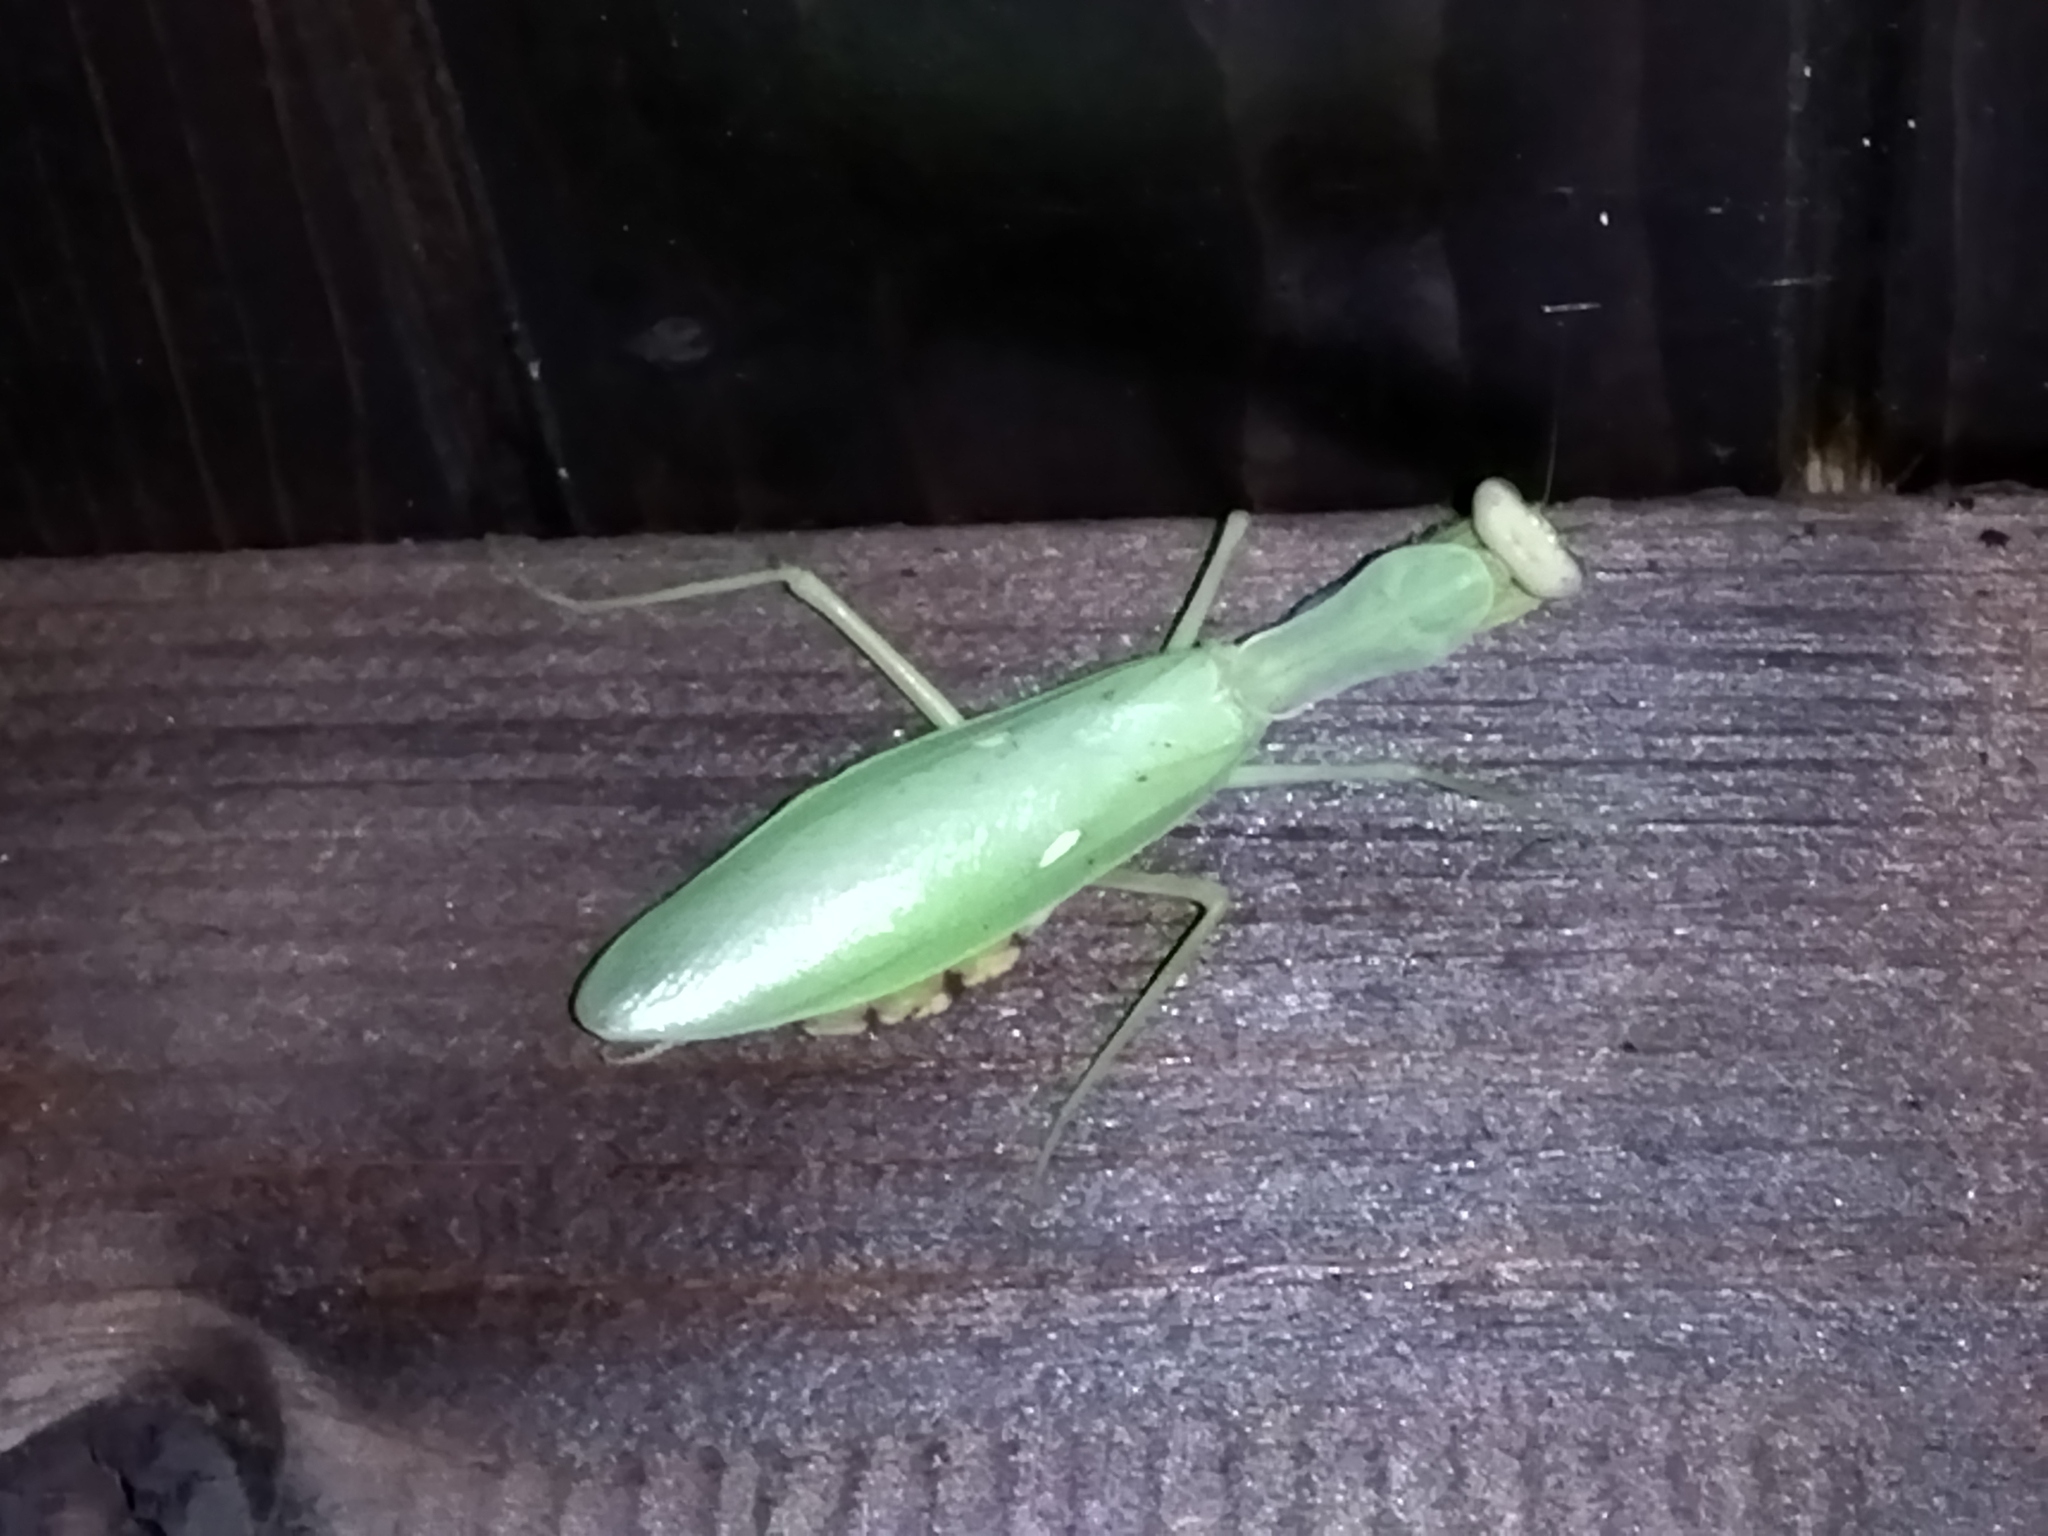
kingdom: Animalia
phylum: Arthropoda
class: Insecta
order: Mantodea
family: Mantidae
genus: Hierodula
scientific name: Hierodula transcaucasica
